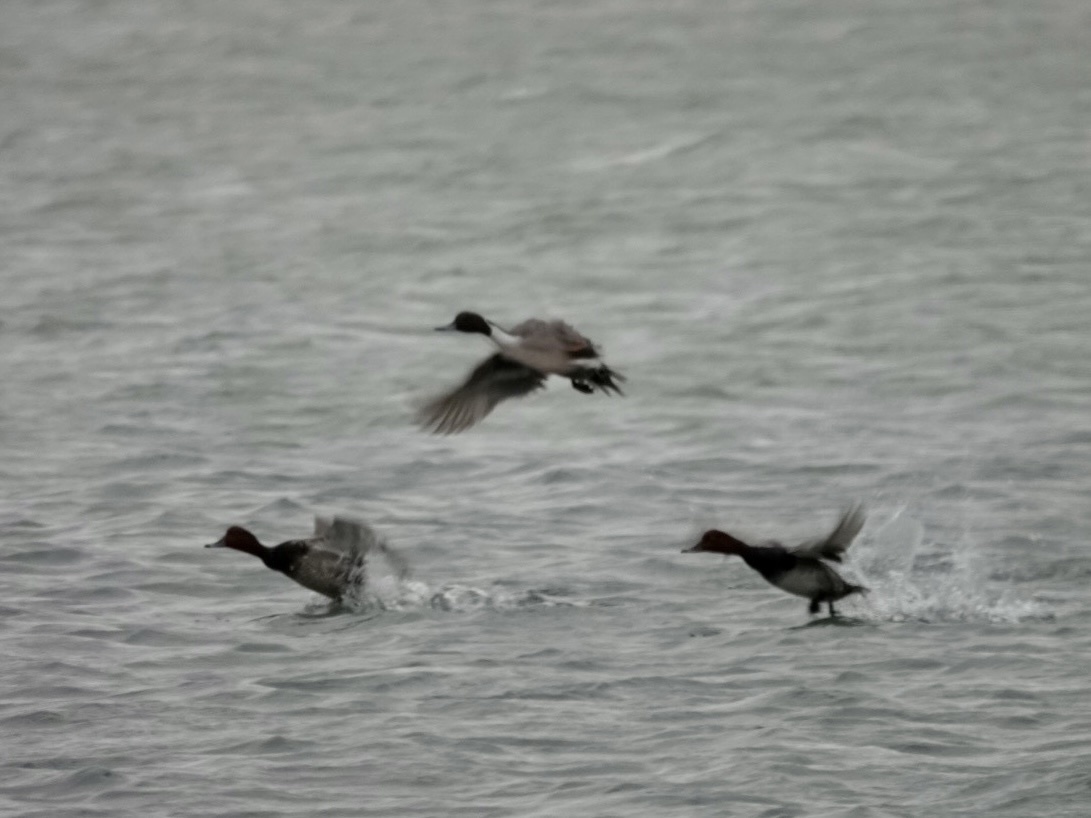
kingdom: Animalia
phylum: Chordata
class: Aves
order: Anseriformes
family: Anatidae
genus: Anas
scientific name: Anas acuta
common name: Northern pintail
